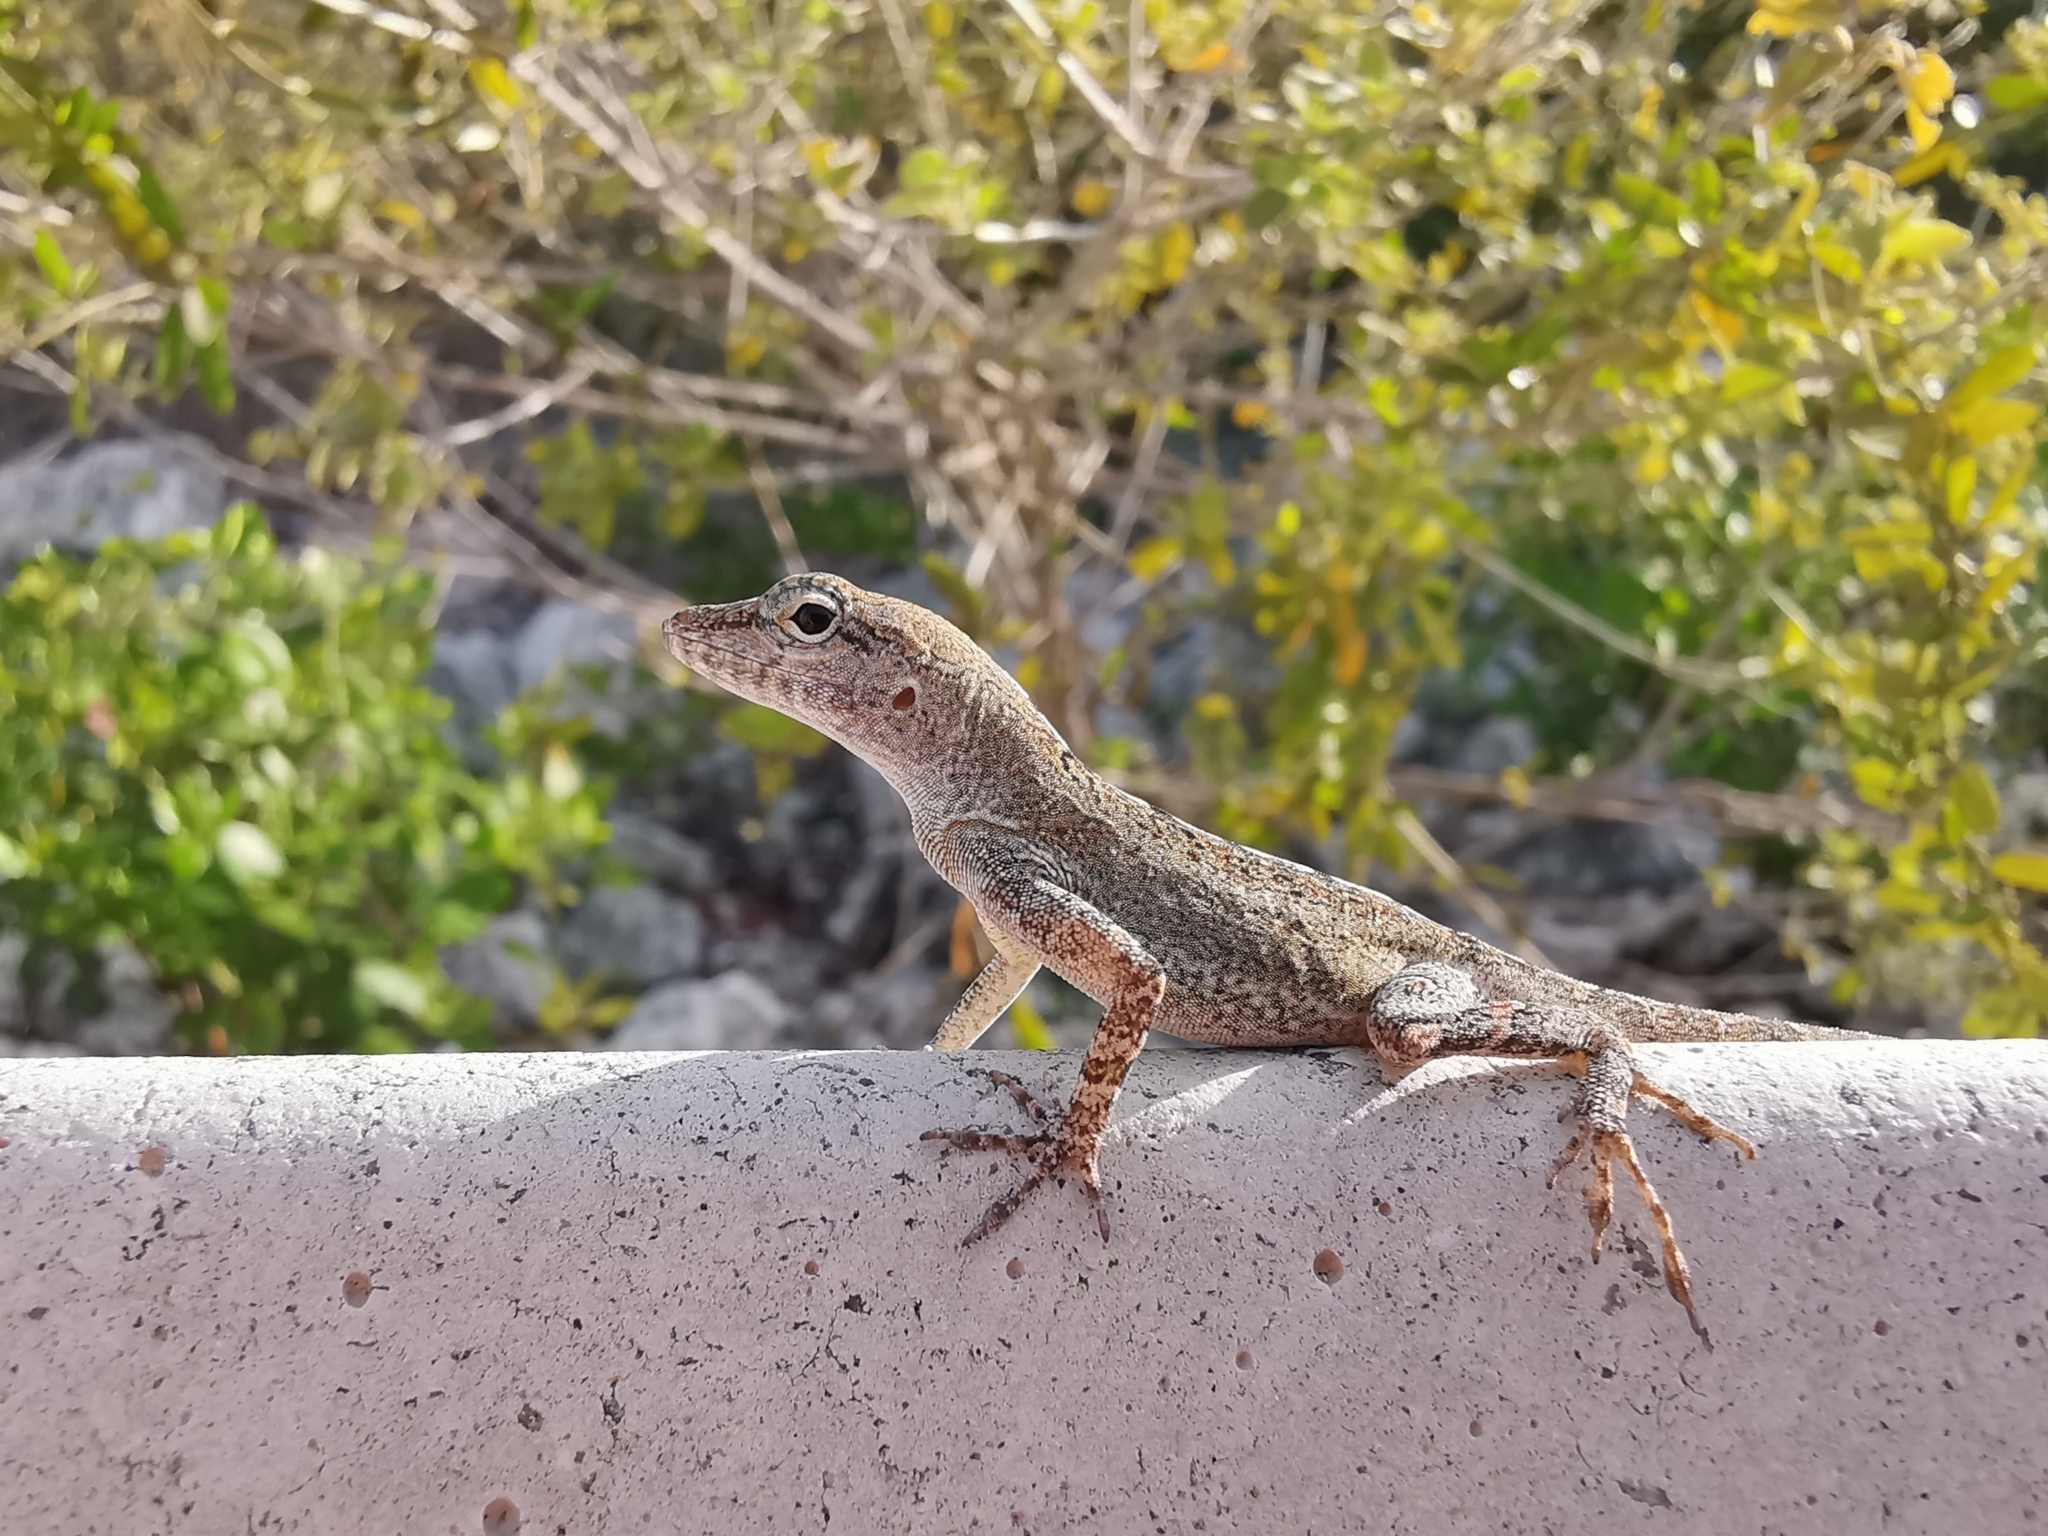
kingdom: Animalia
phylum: Chordata
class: Squamata
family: Dactyloidae
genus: Anolis
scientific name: Anolis scriptus
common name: Silver key anole
